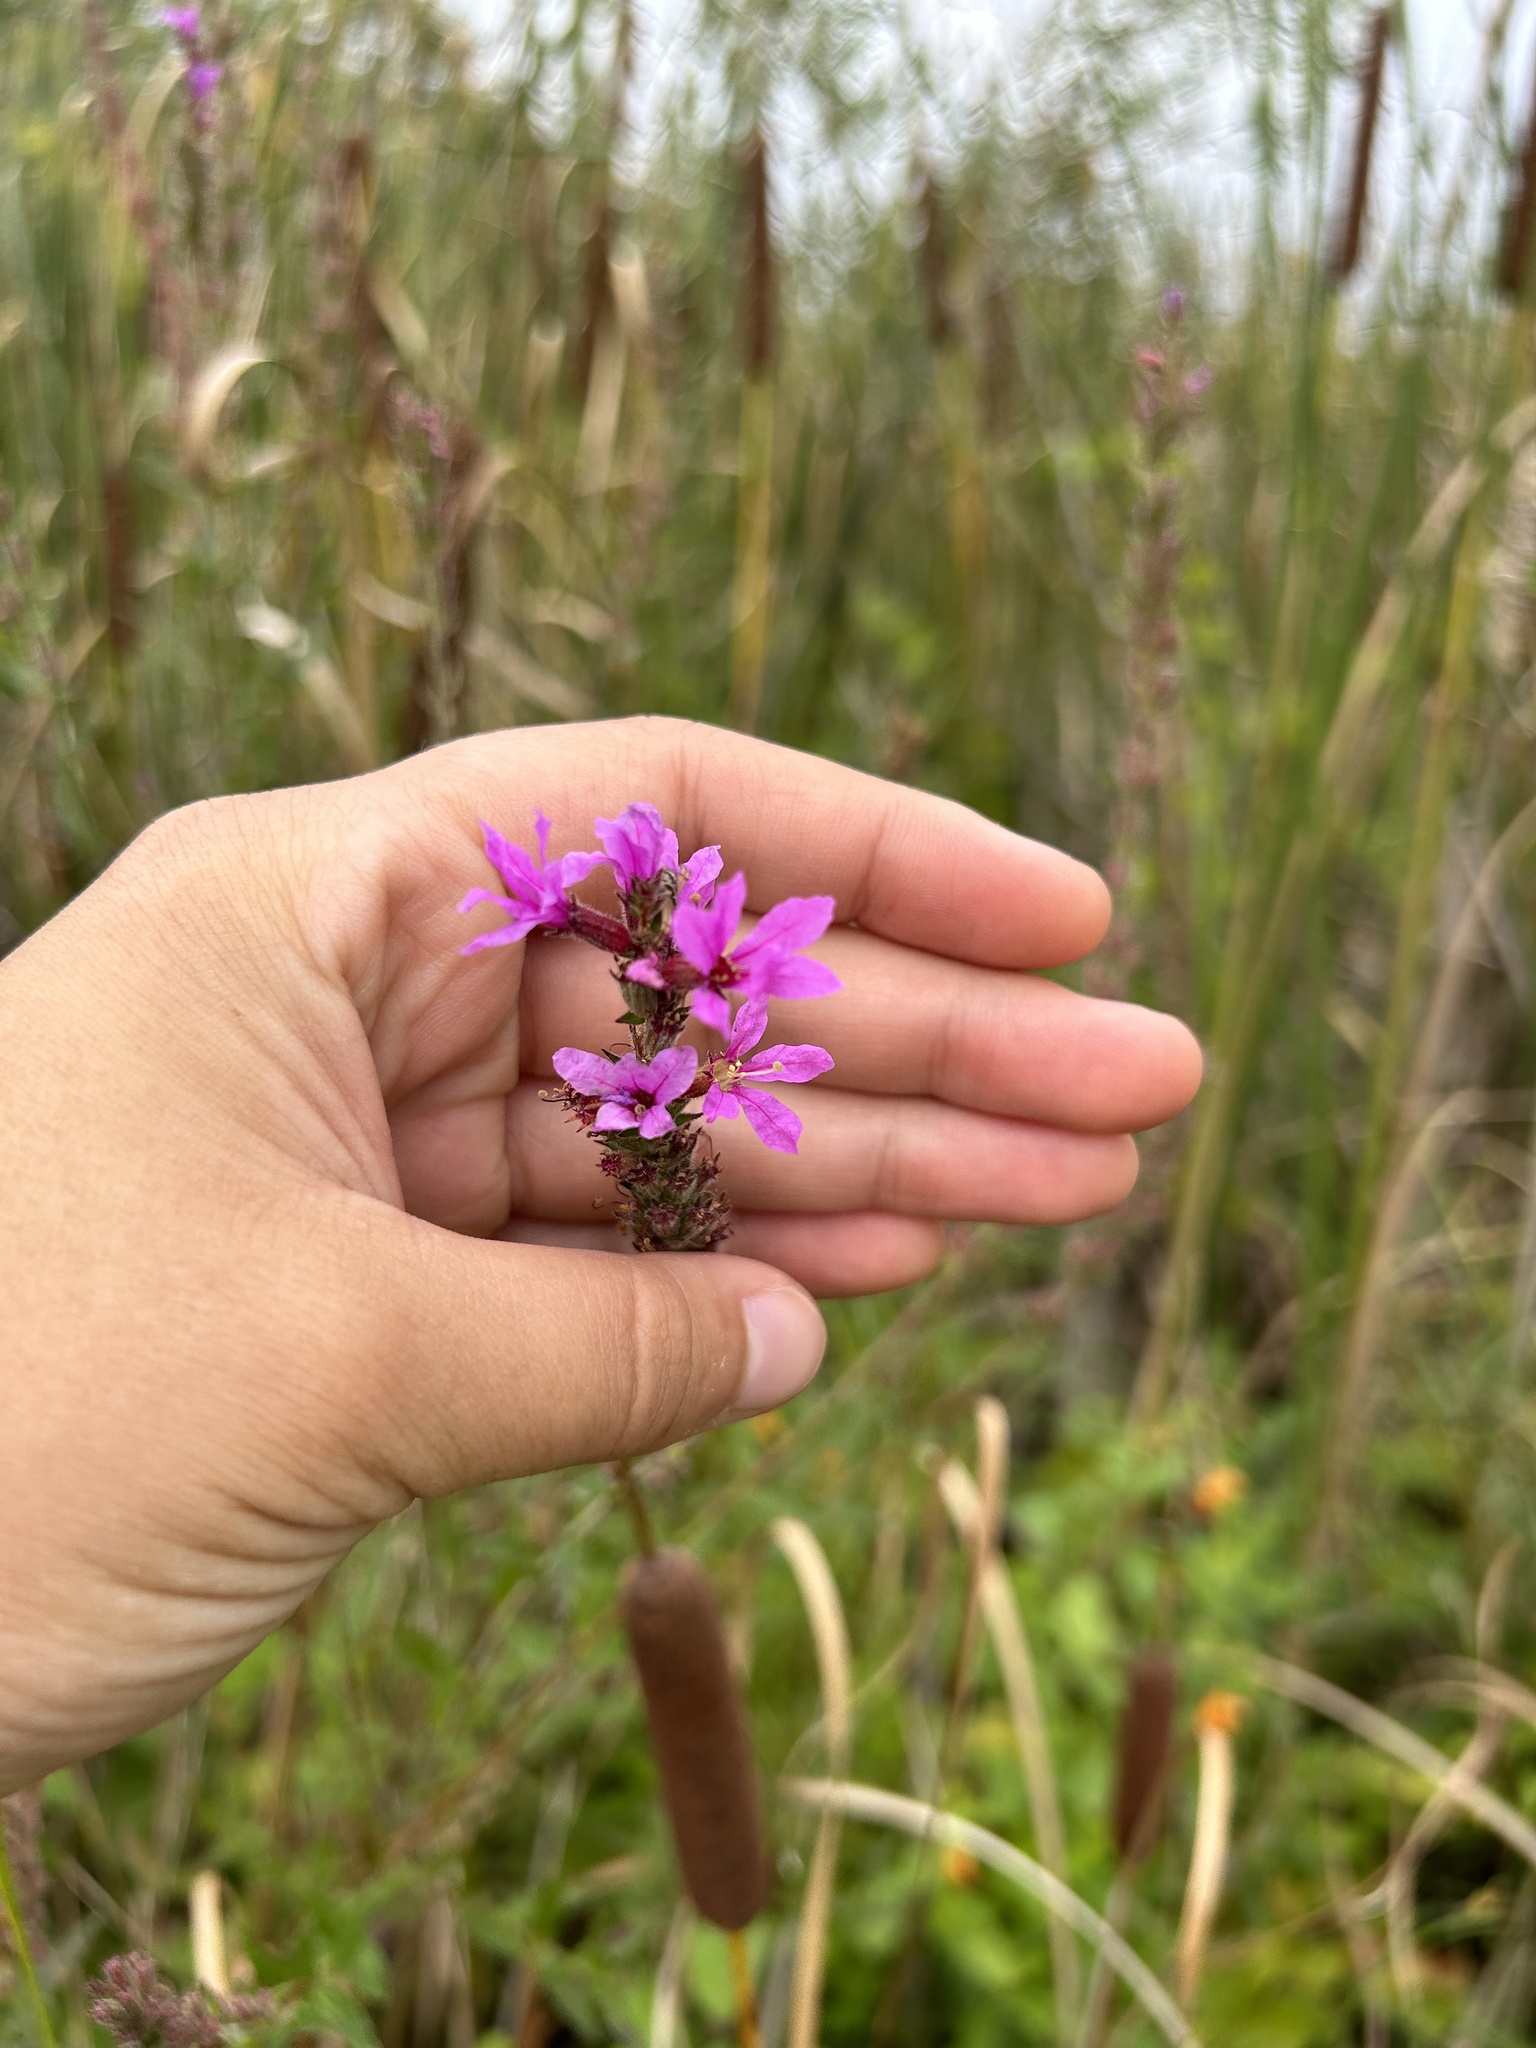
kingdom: Plantae
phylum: Tracheophyta
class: Magnoliopsida
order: Myrtales
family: Lythraceae
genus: Lythrum
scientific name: Lythrum salicaria
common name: Purple loosestrife
